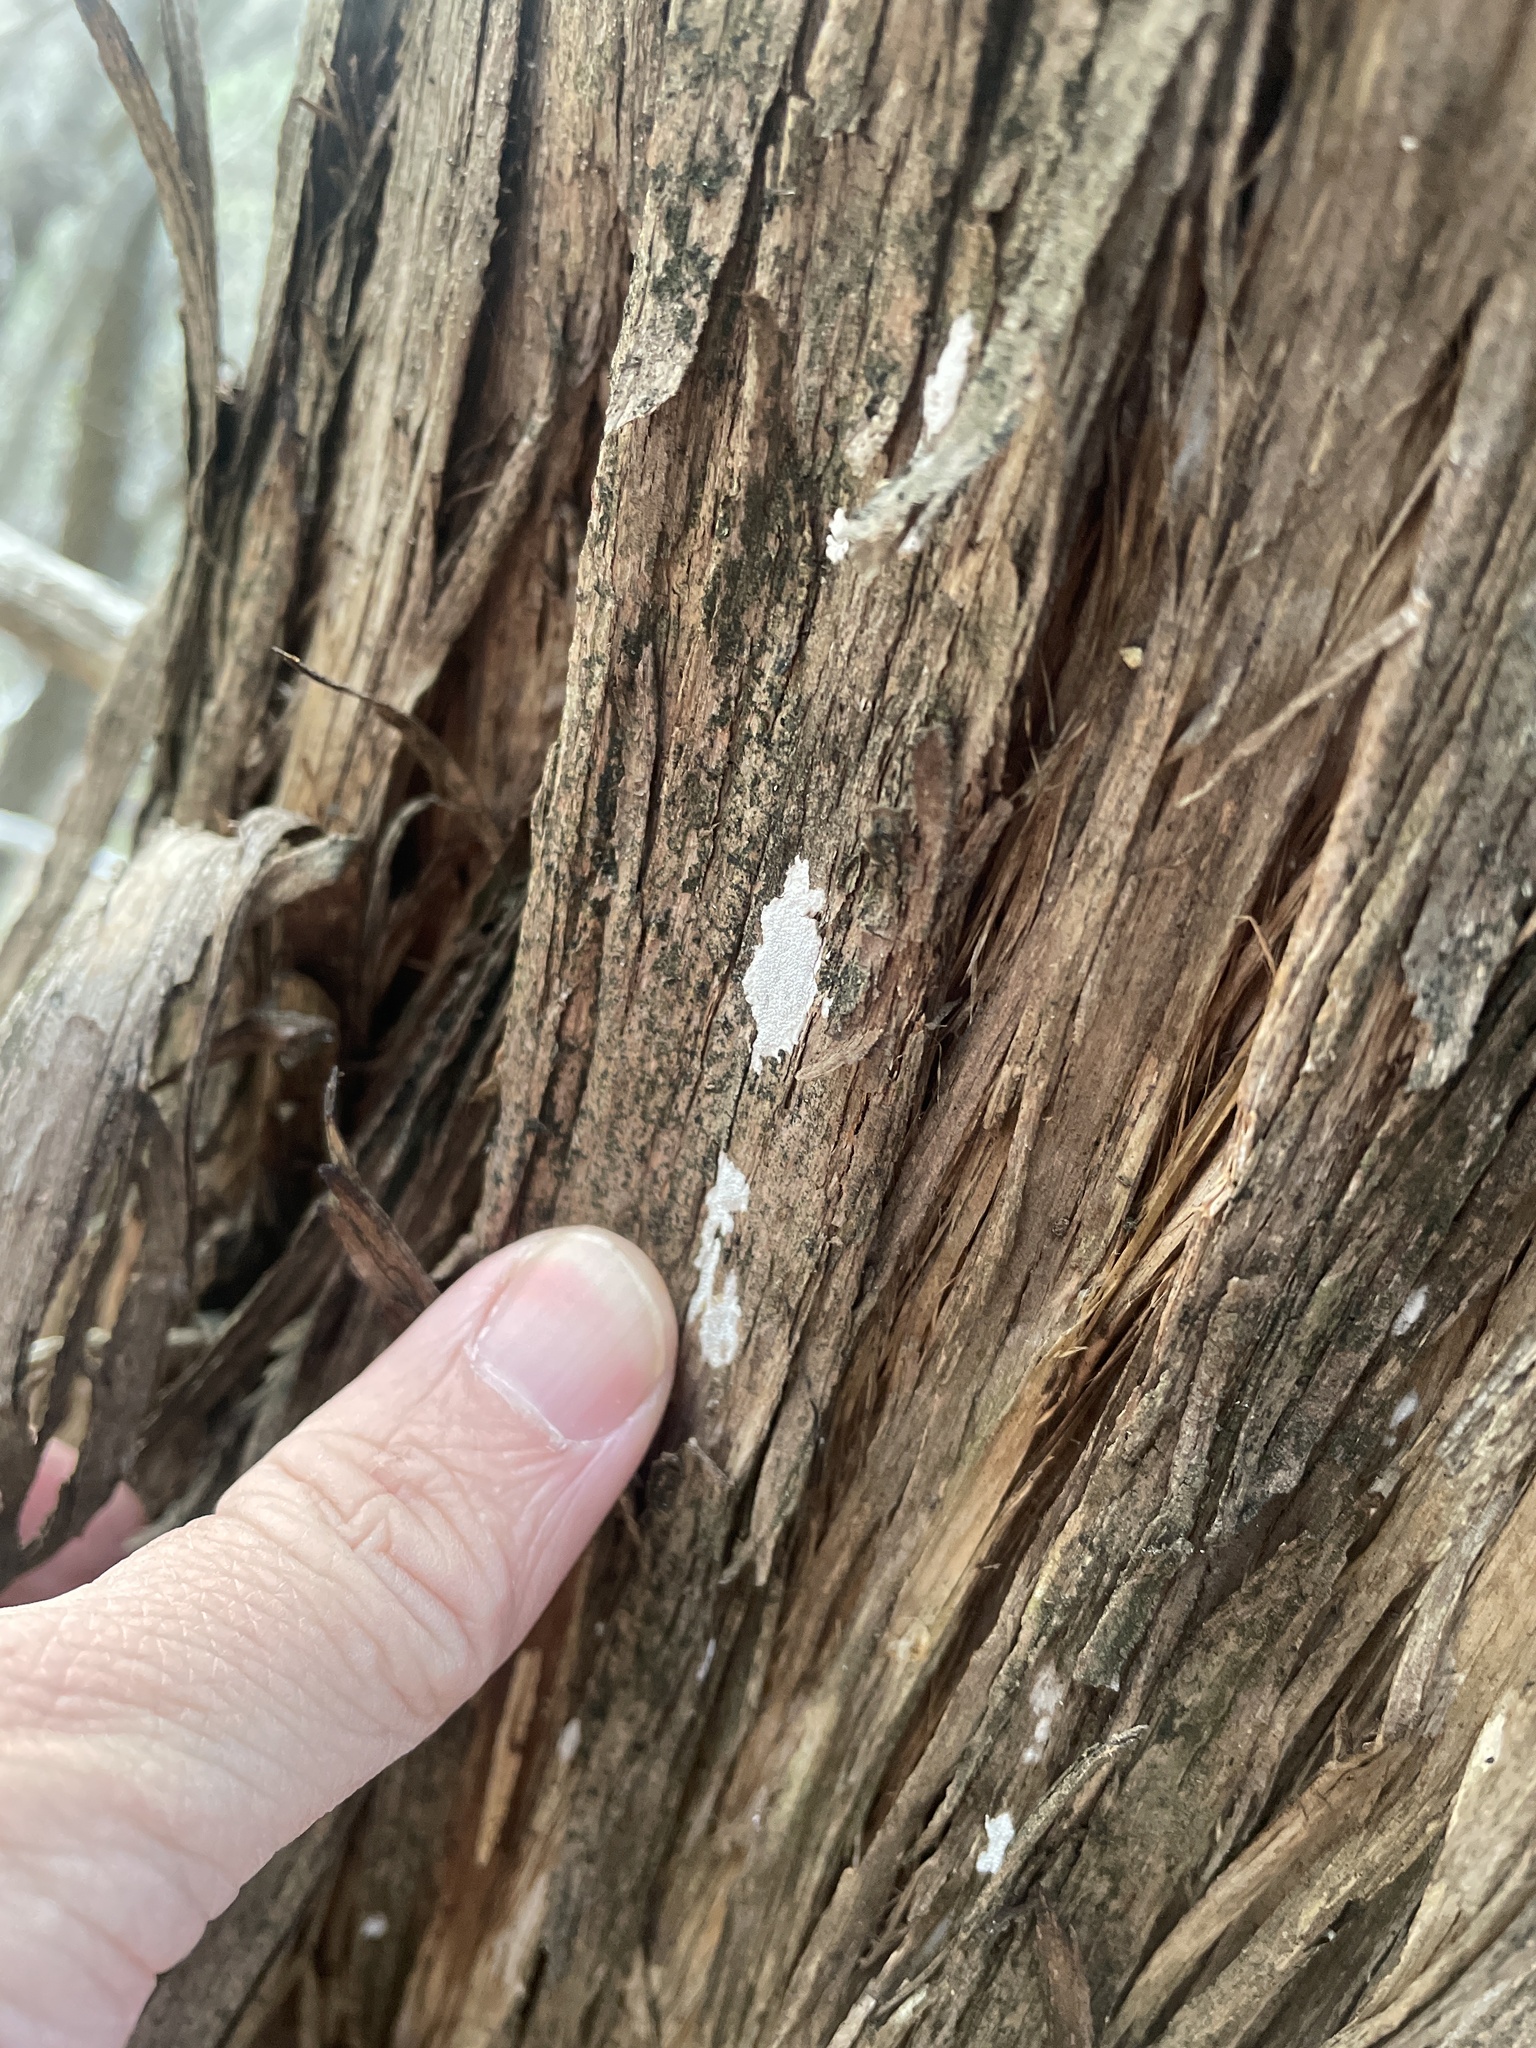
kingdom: Fungi
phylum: Basidiomycota
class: Agaricomycetes
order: Agaricales
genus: Dendrothele
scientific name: Dendrothele nivosa
